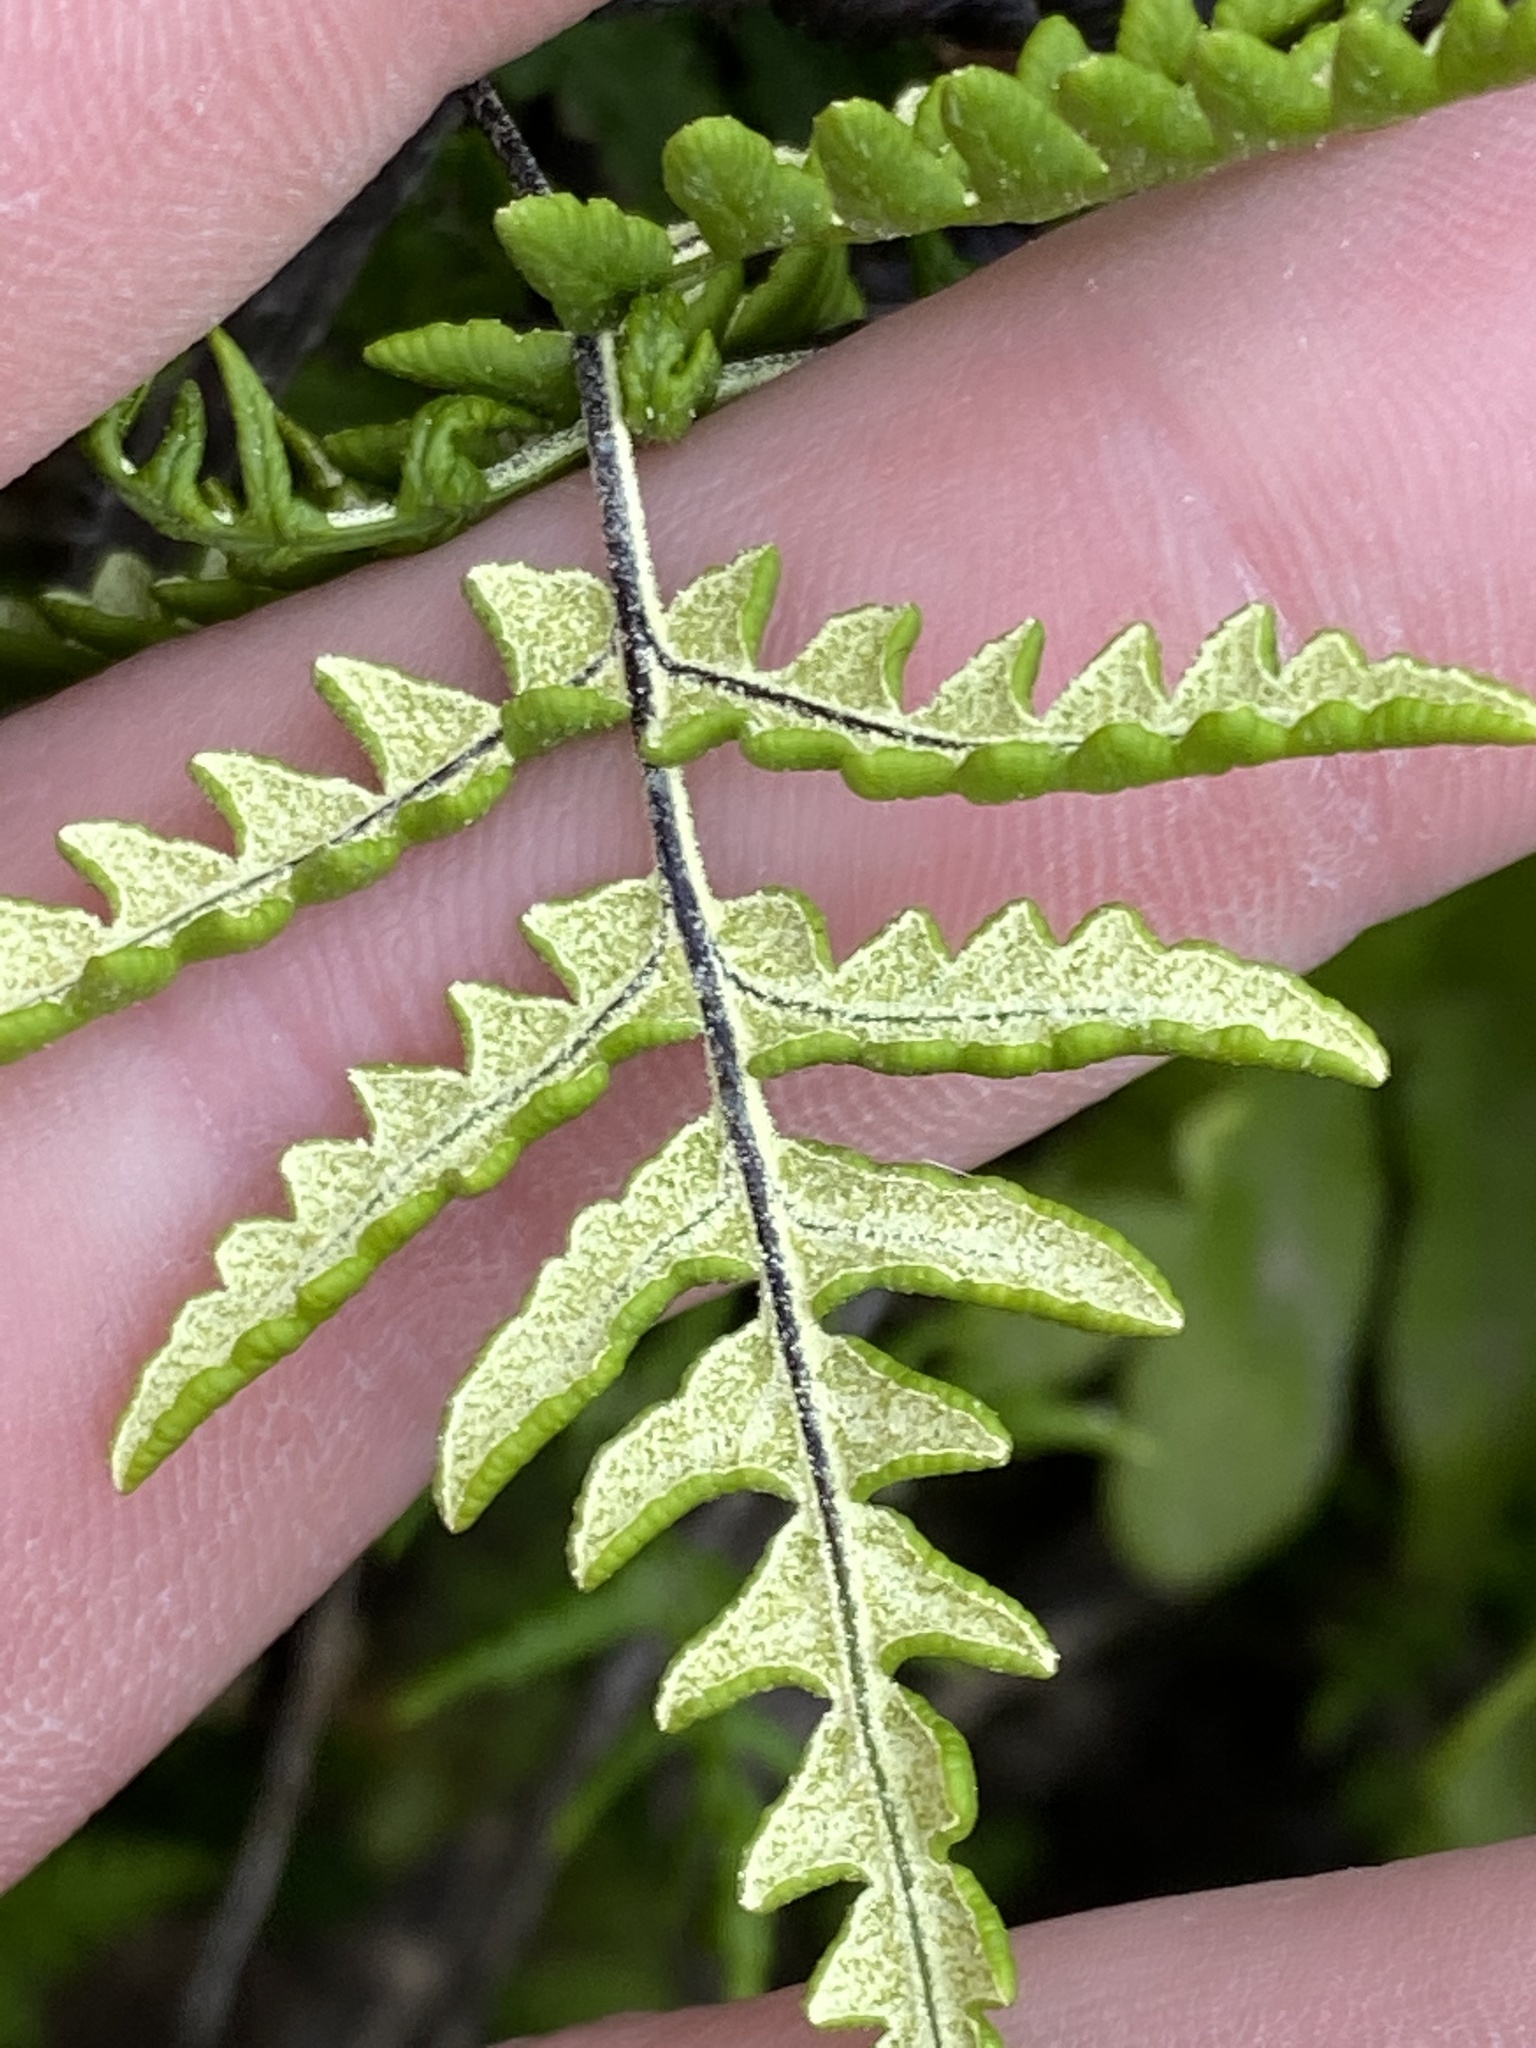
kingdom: Plantae
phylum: Tracheophyta
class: Polypodiopsida
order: Polypodiales
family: Pteridaceae
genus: Pentagramma
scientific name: Pentagramma triangularis
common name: Gold fern
